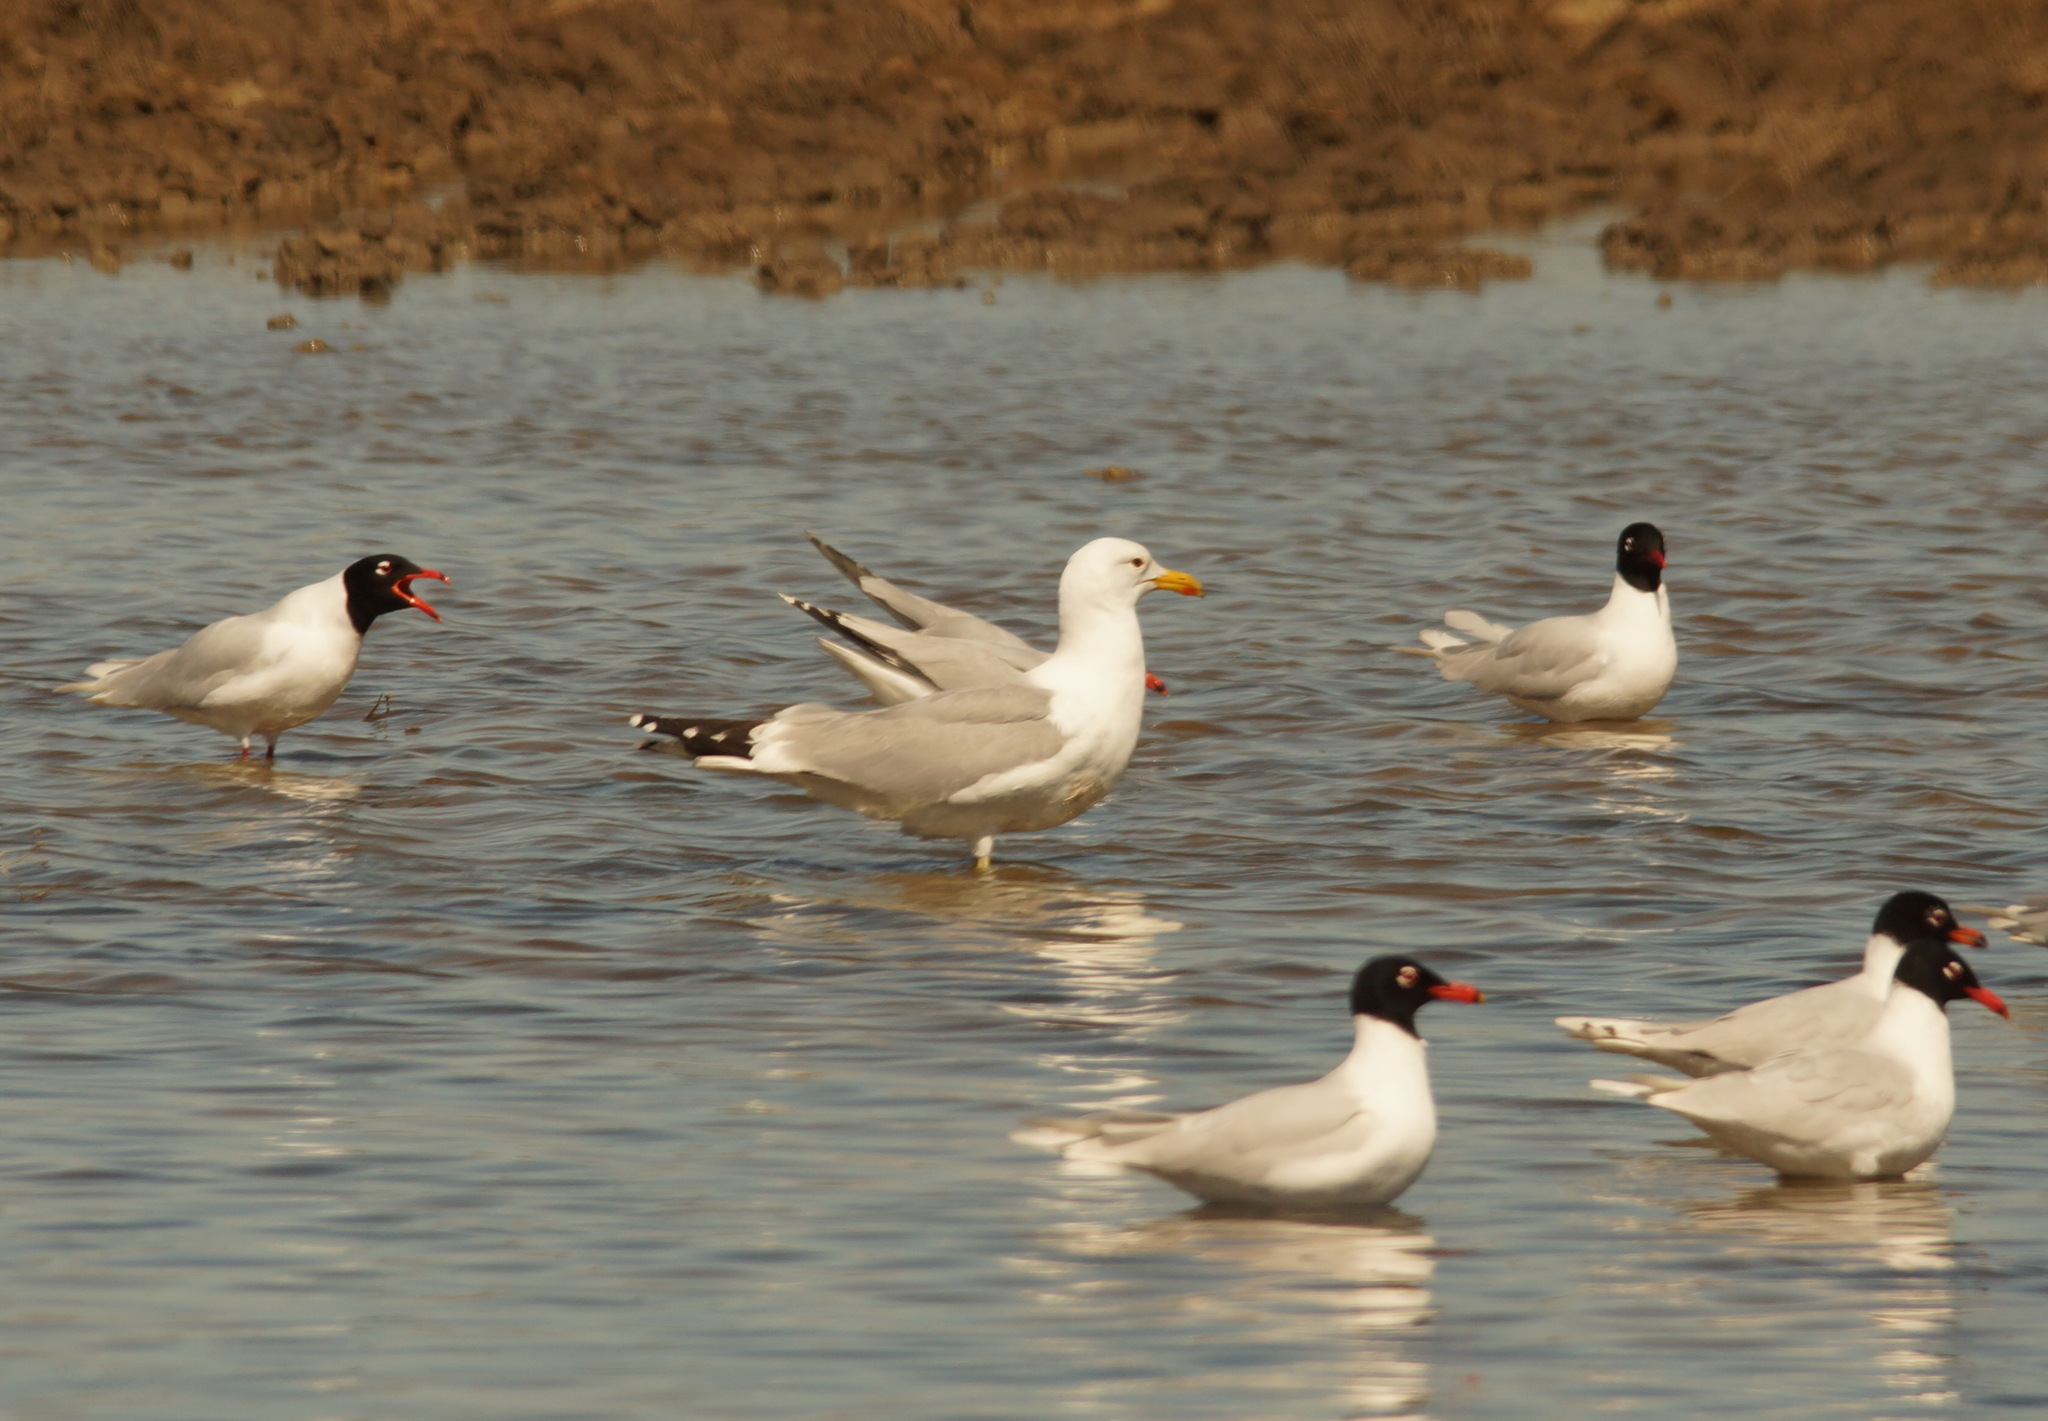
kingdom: Animalia
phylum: Chordata
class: Aves
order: Charadriiformes
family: Laridae
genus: Ichthyaetus
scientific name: Ichthyaetus melanocephalus
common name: Mediterranean gull
